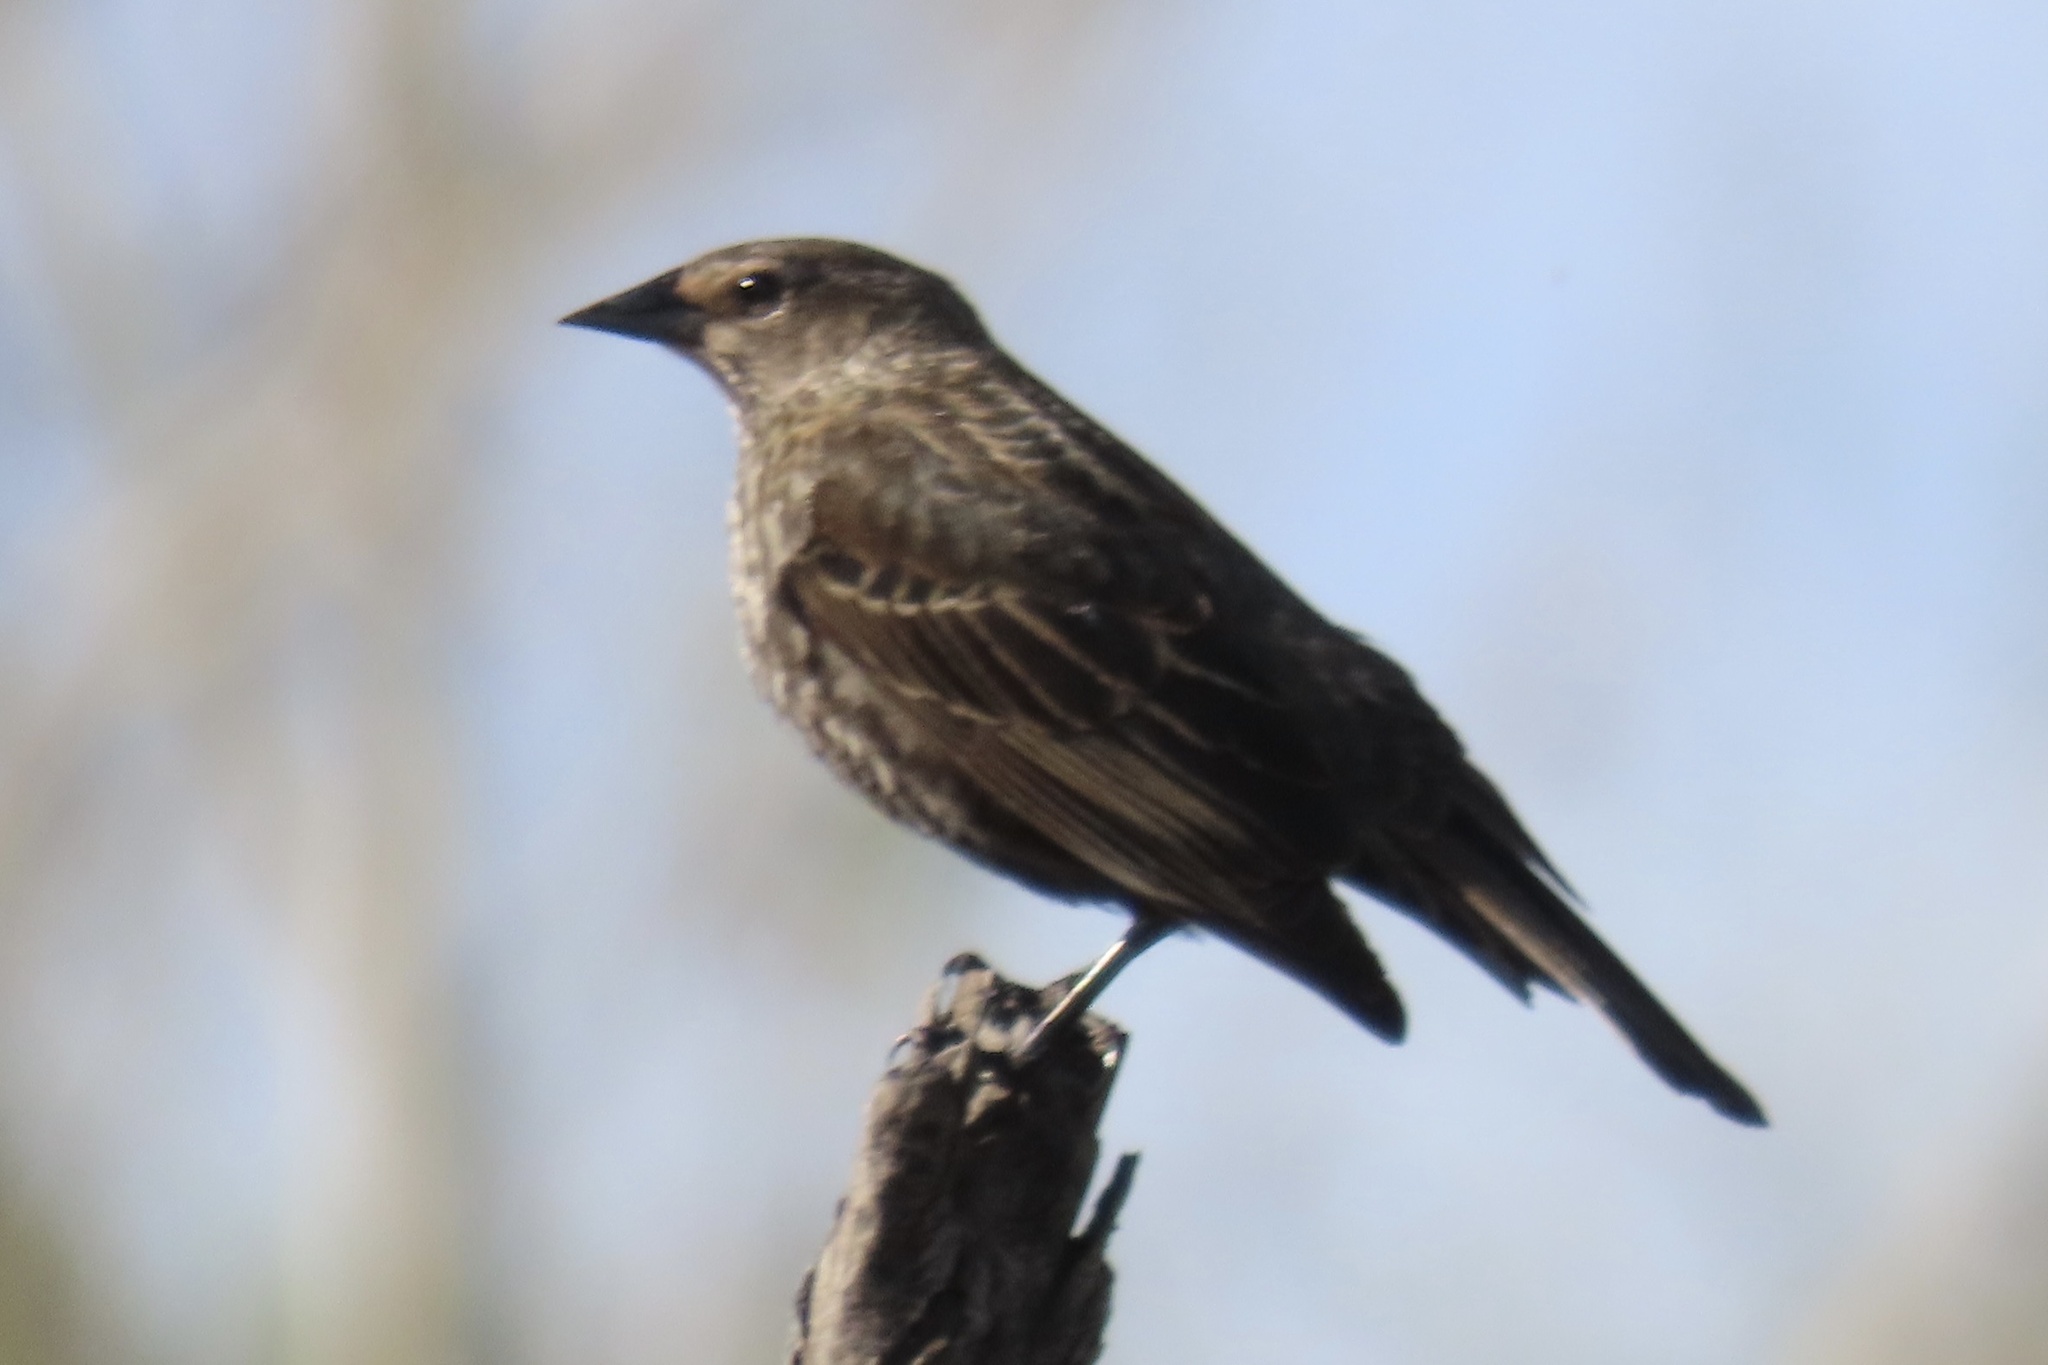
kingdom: Animalia
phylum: Chordata
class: Aves
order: Passeriformes
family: Icteridae
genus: Agelaius
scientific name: Agelaius phoeniceus
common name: Red-winged blackbird
